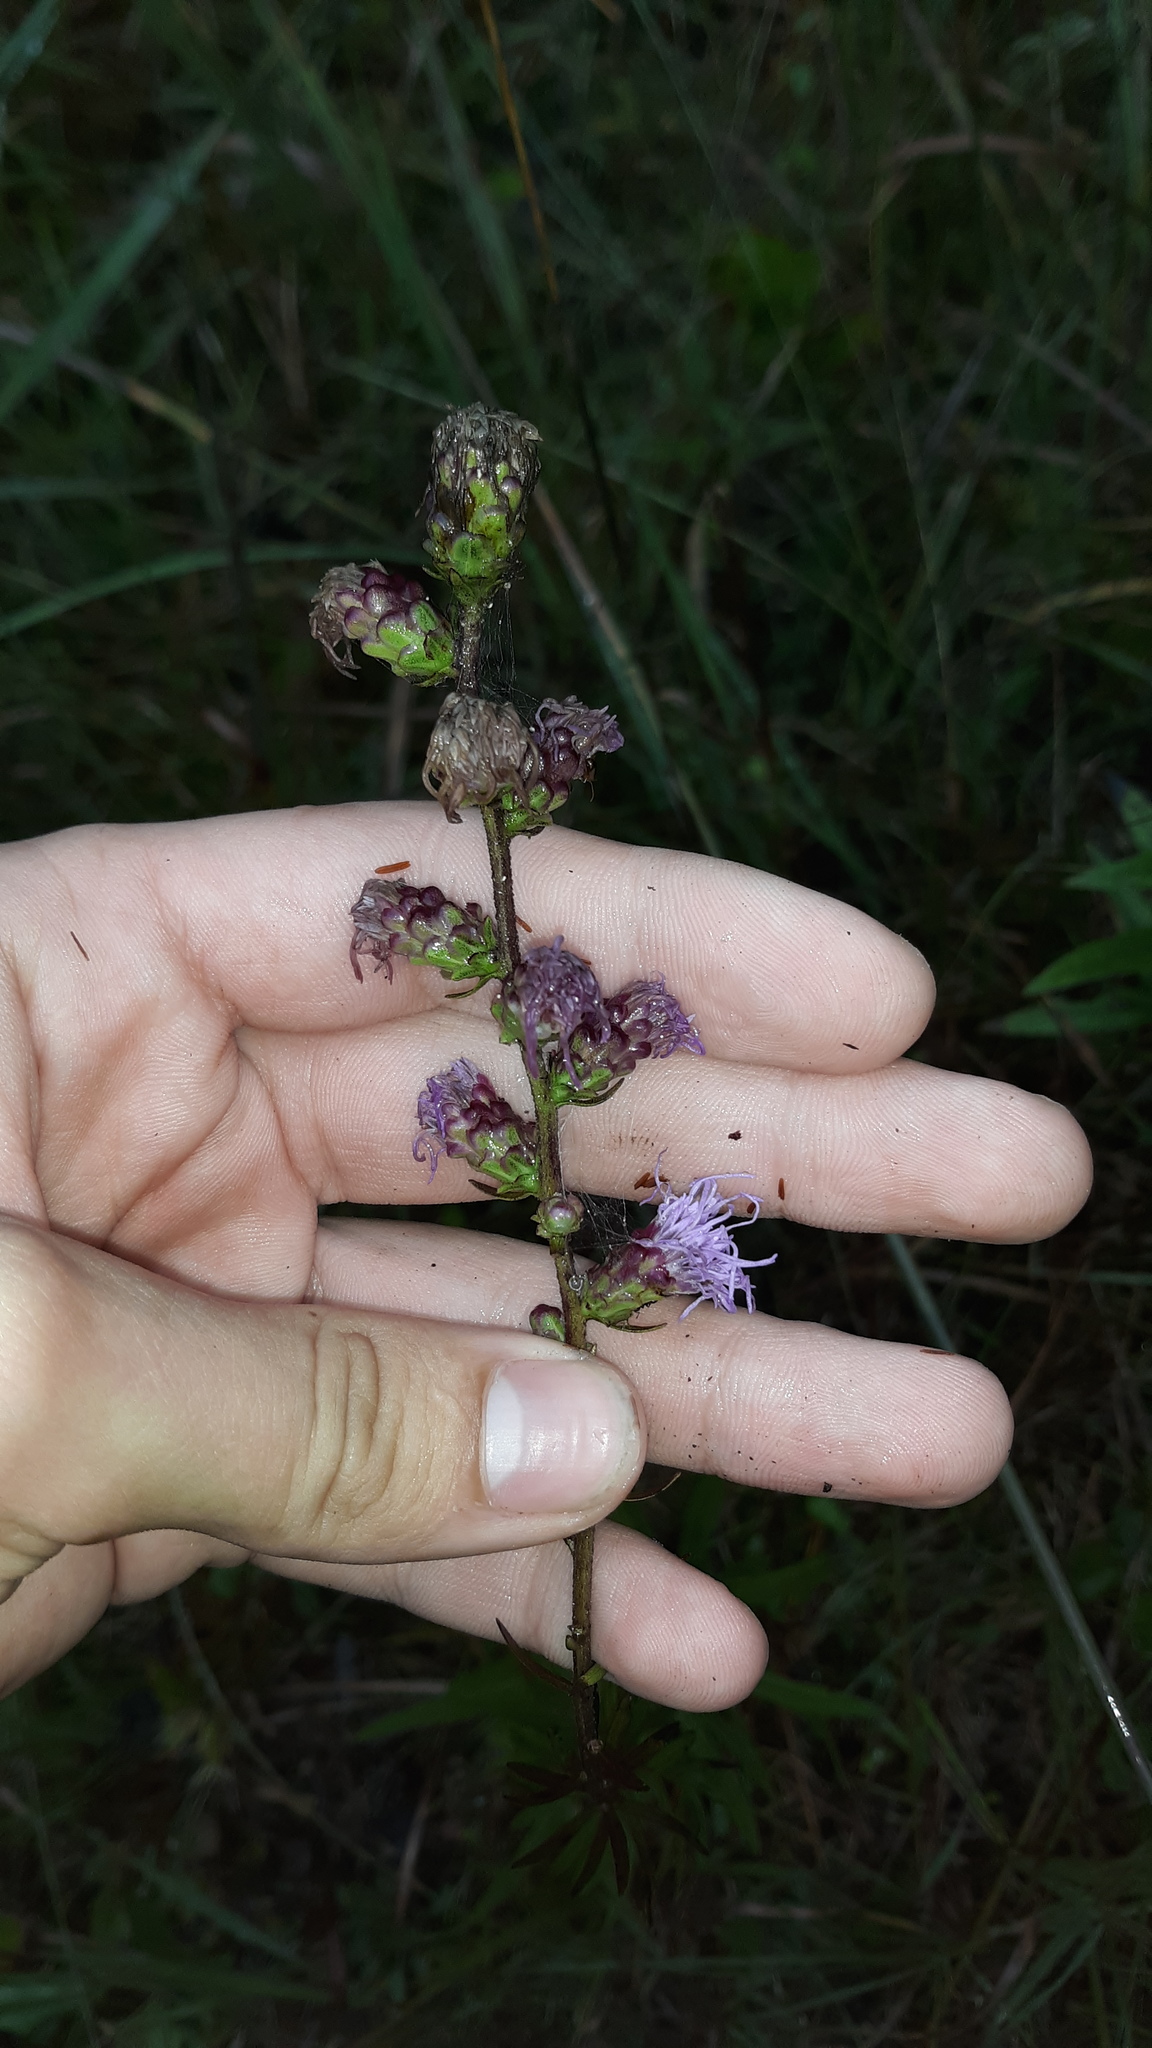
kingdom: Plantae
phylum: Tracheophyta
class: Magnoliopsida
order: Asterales
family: Asteraceae
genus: Liatris
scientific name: Liatris aspera
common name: Lacerate blazing-star
